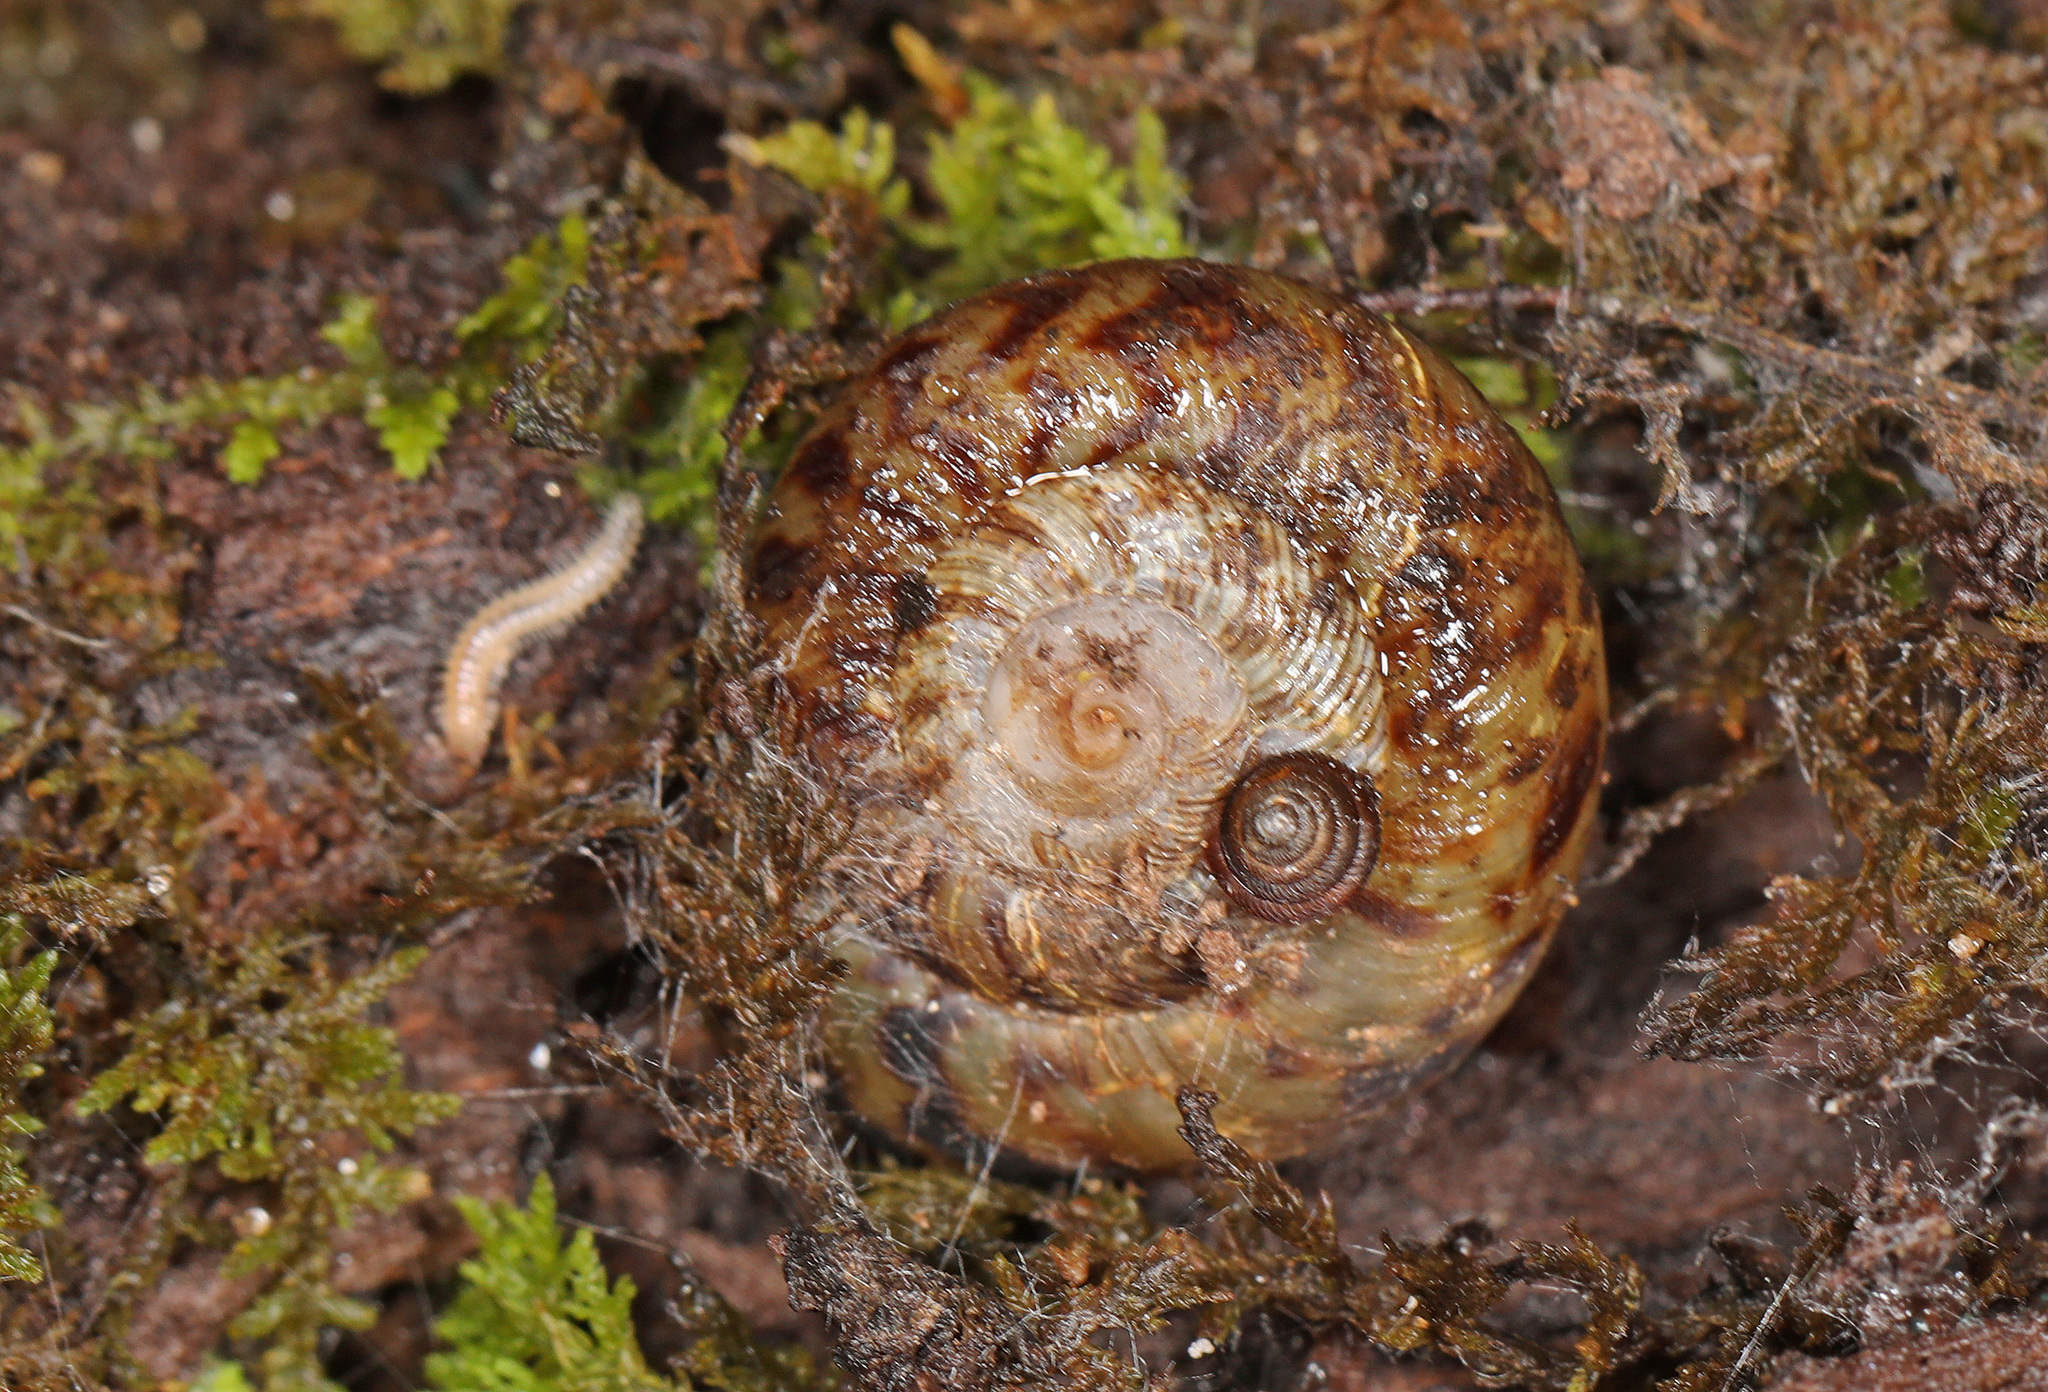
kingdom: Animalia
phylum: Mollusca
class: Gastropoda
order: Stylommatophora
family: Discidae
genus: Anguispira
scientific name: Anguispira alternata
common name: Flamed tigersnail
